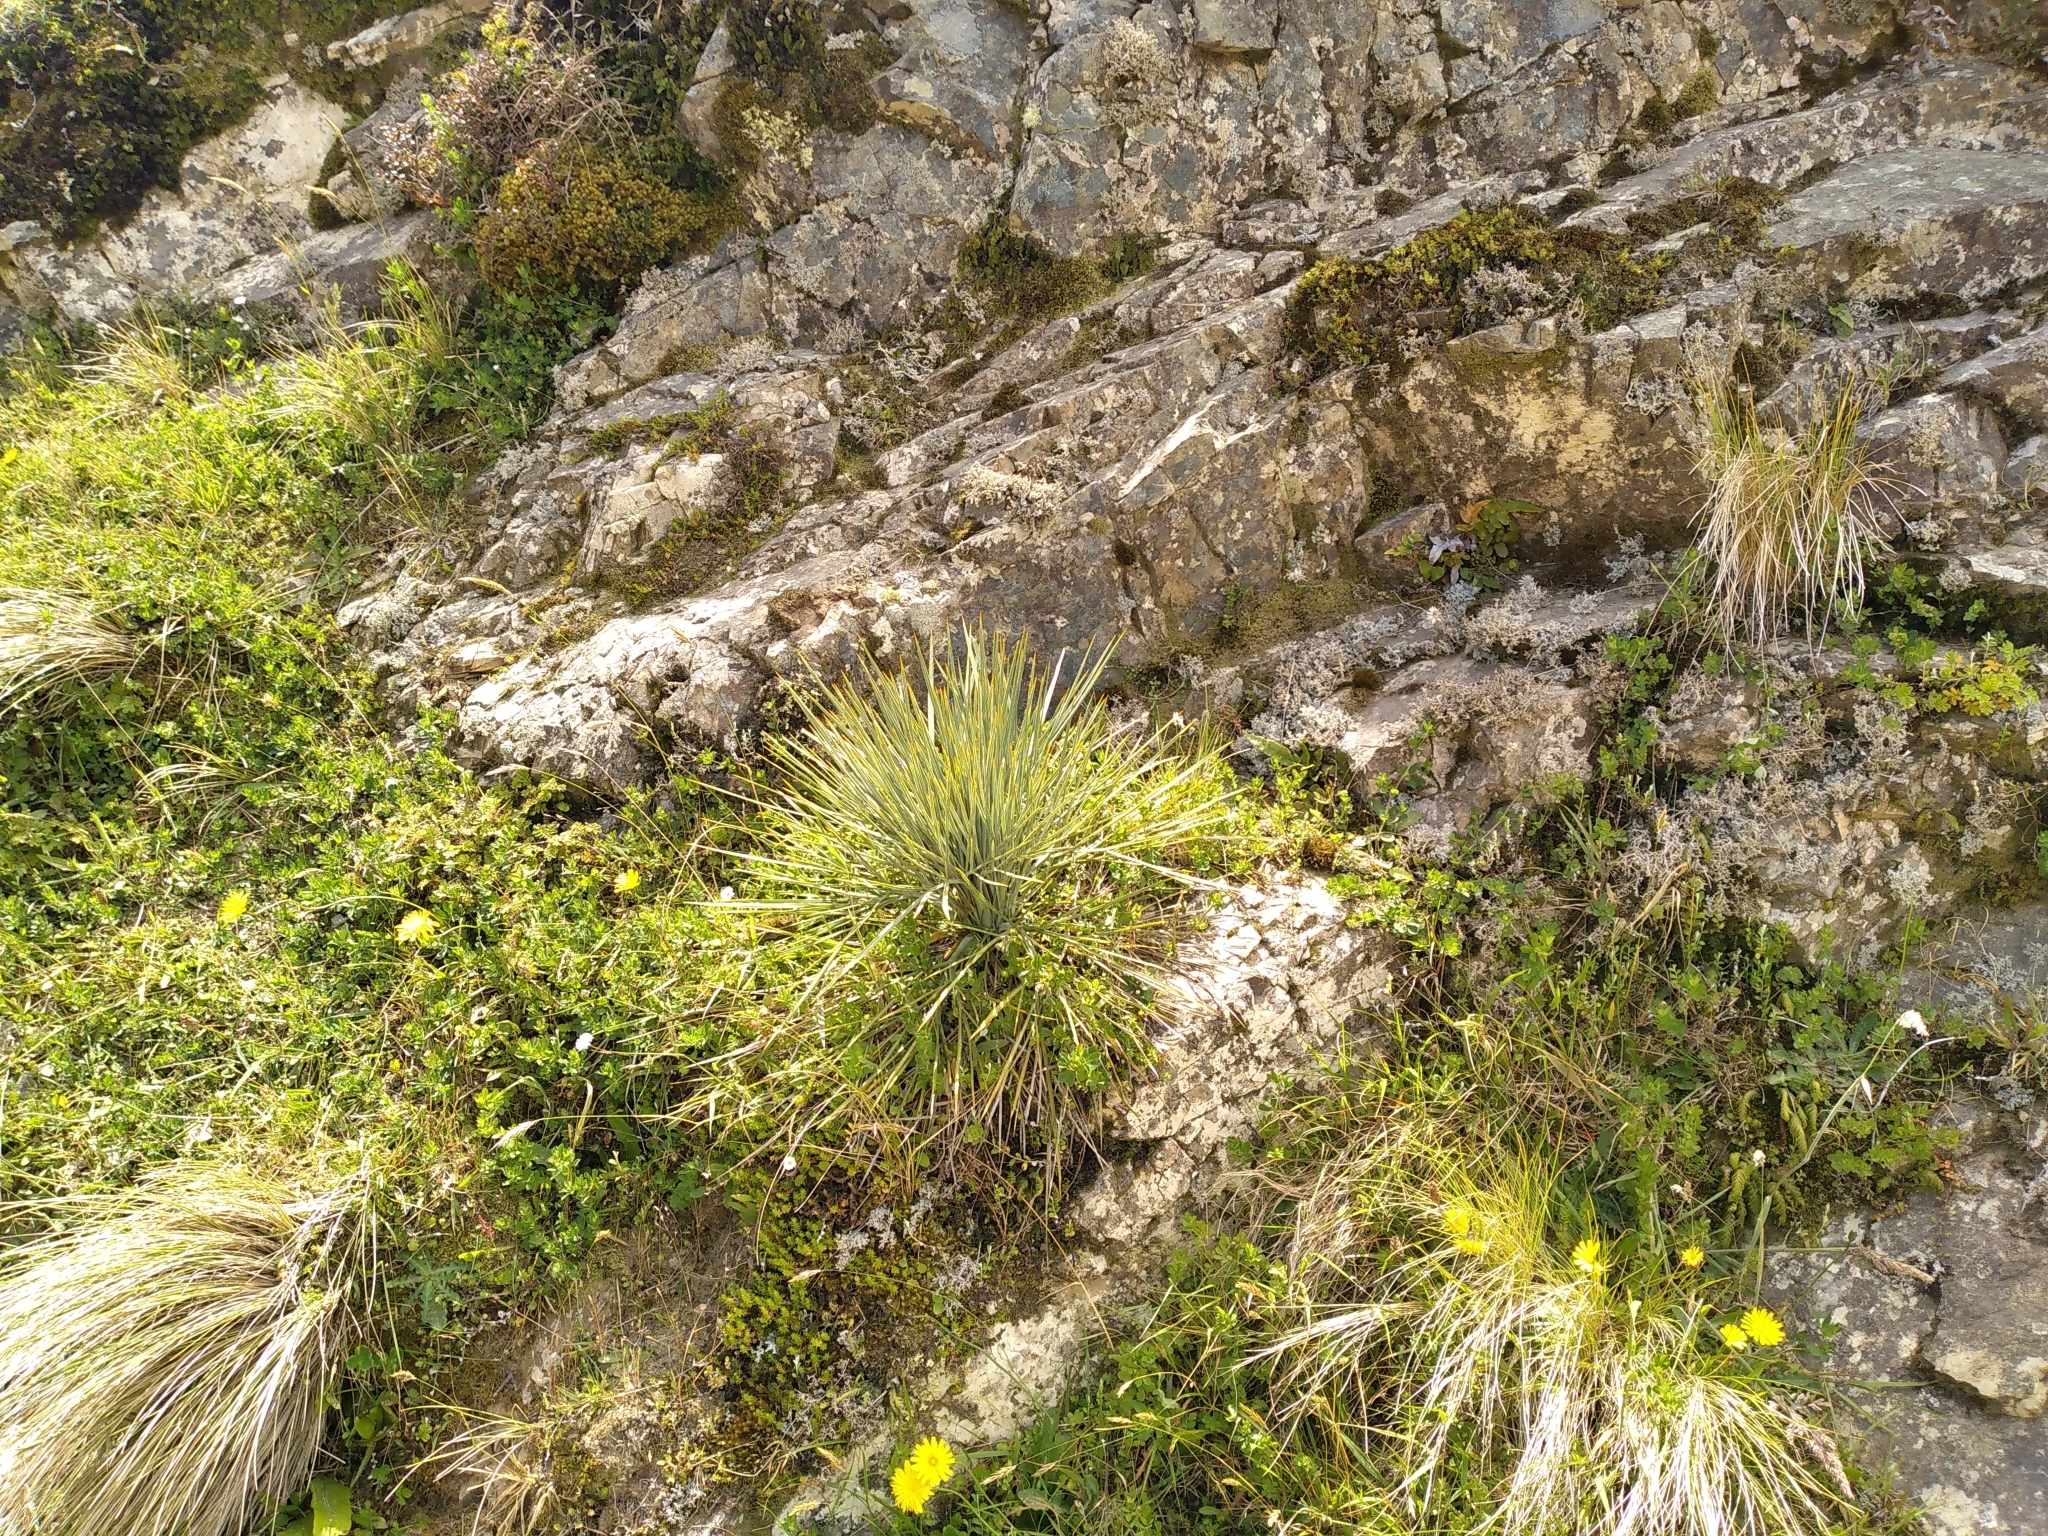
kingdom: Plantae
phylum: Tracheophyta
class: Magnoliopsida
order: Apiales
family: Apiaceae
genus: Aciphylla
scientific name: Aciphylla squarrosa
